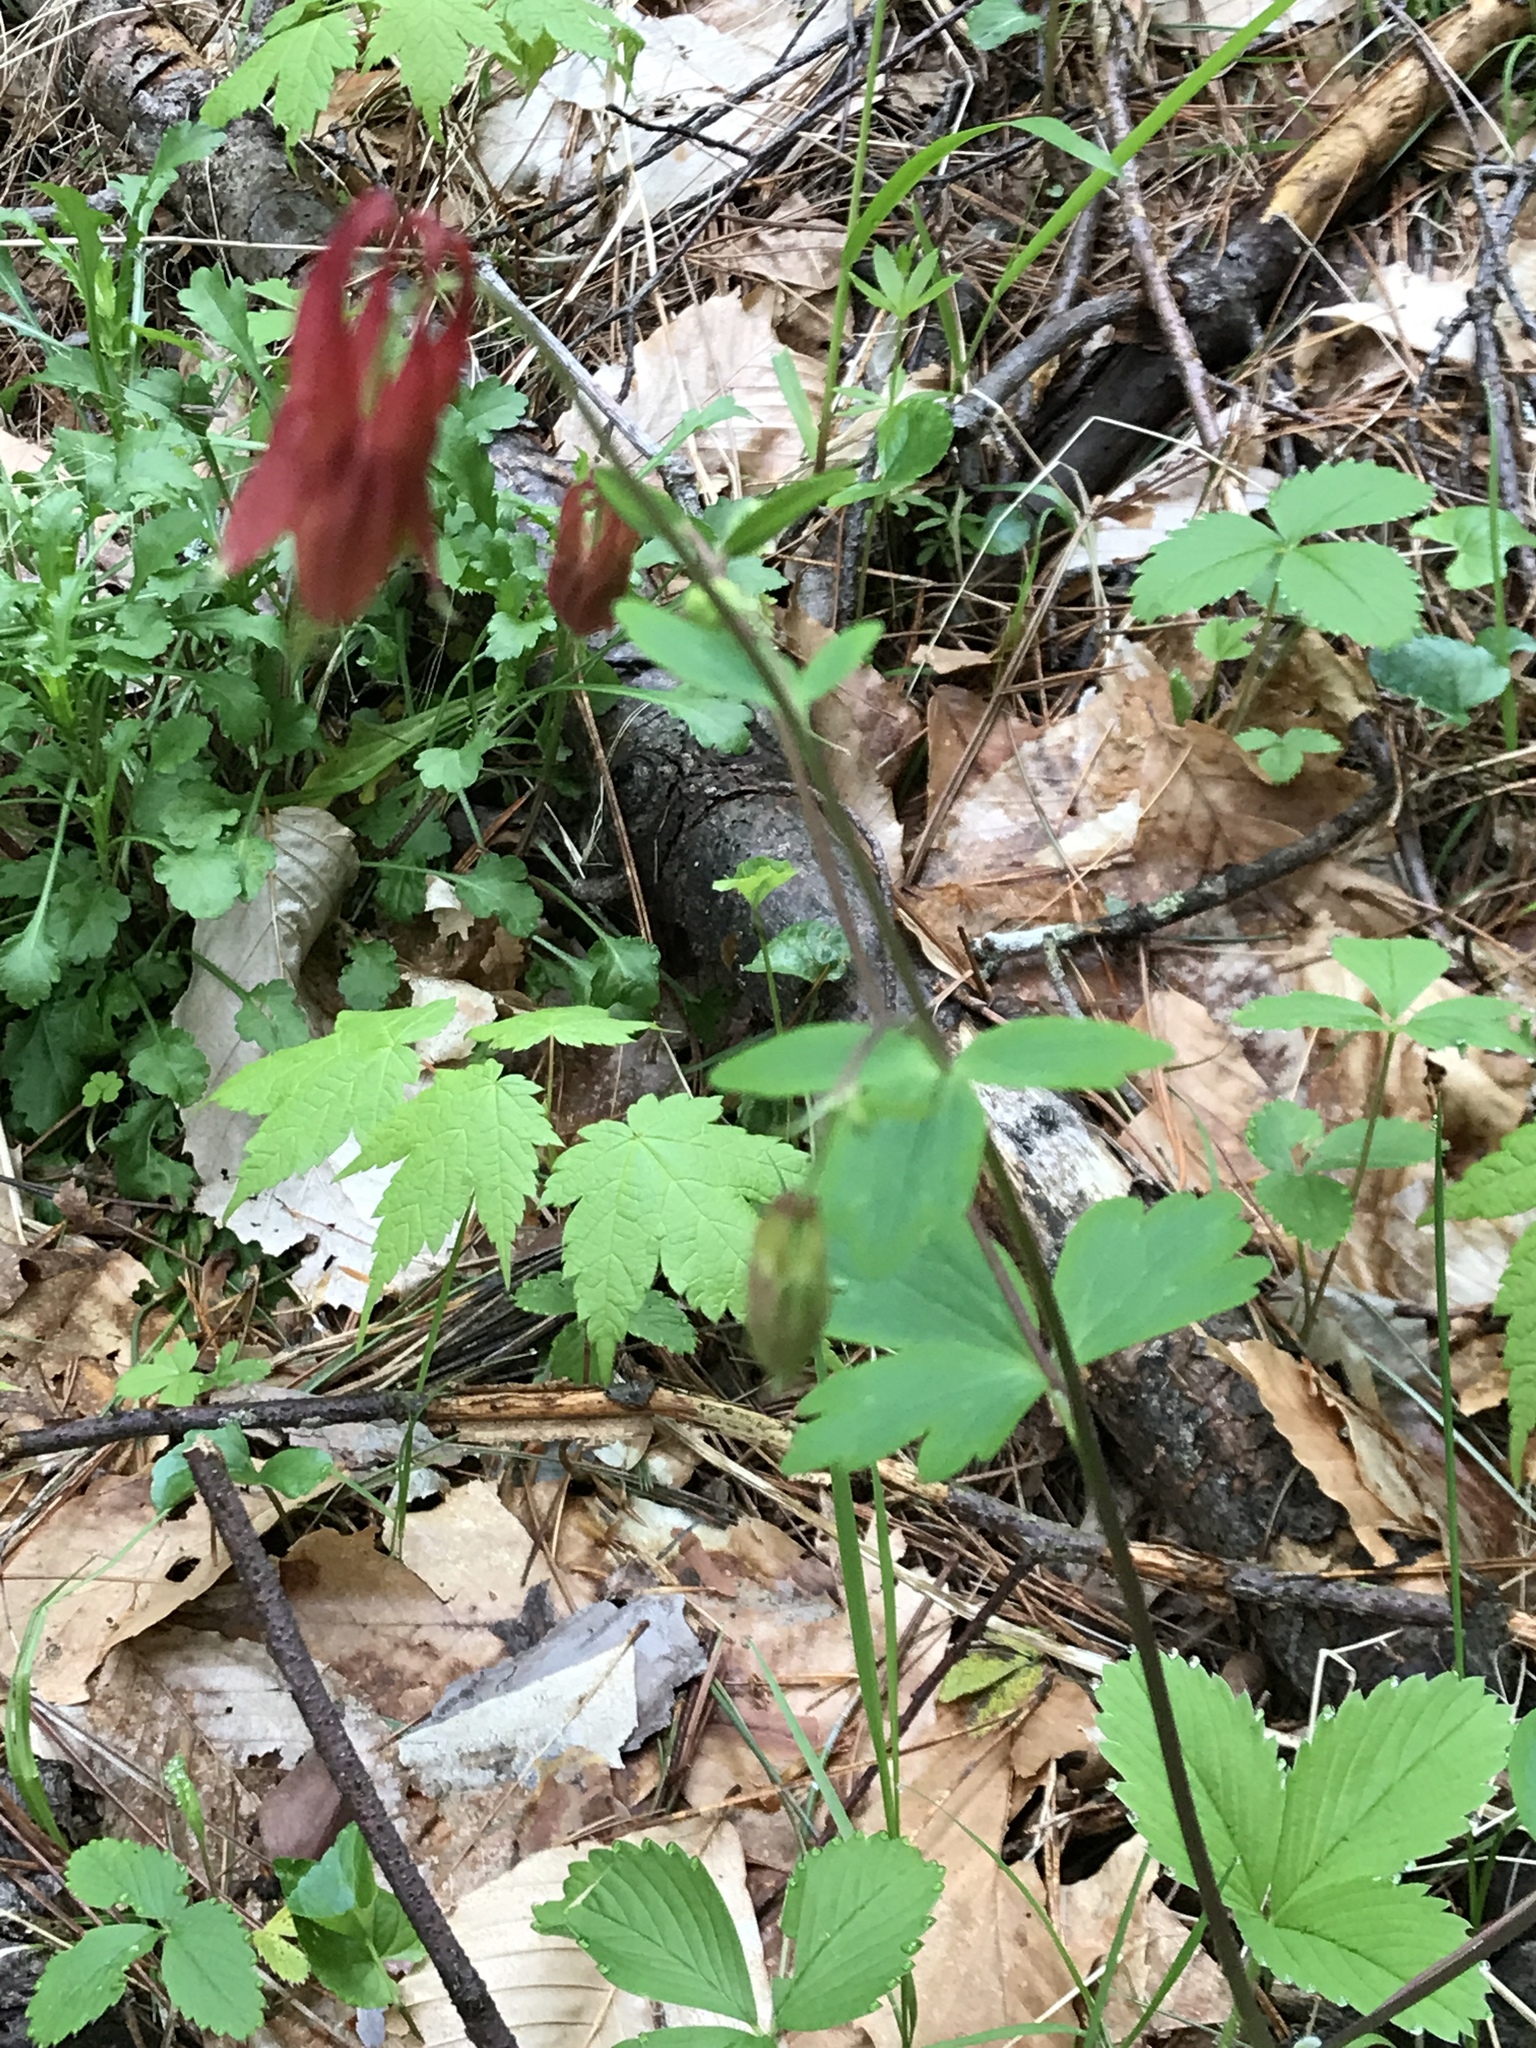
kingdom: Plantae
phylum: Tracheophyta
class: Magnoliopsida
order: Ranunculales
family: Ranunculaceae
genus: Aquilegia
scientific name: Aquilegia canadensis
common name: American columbine
